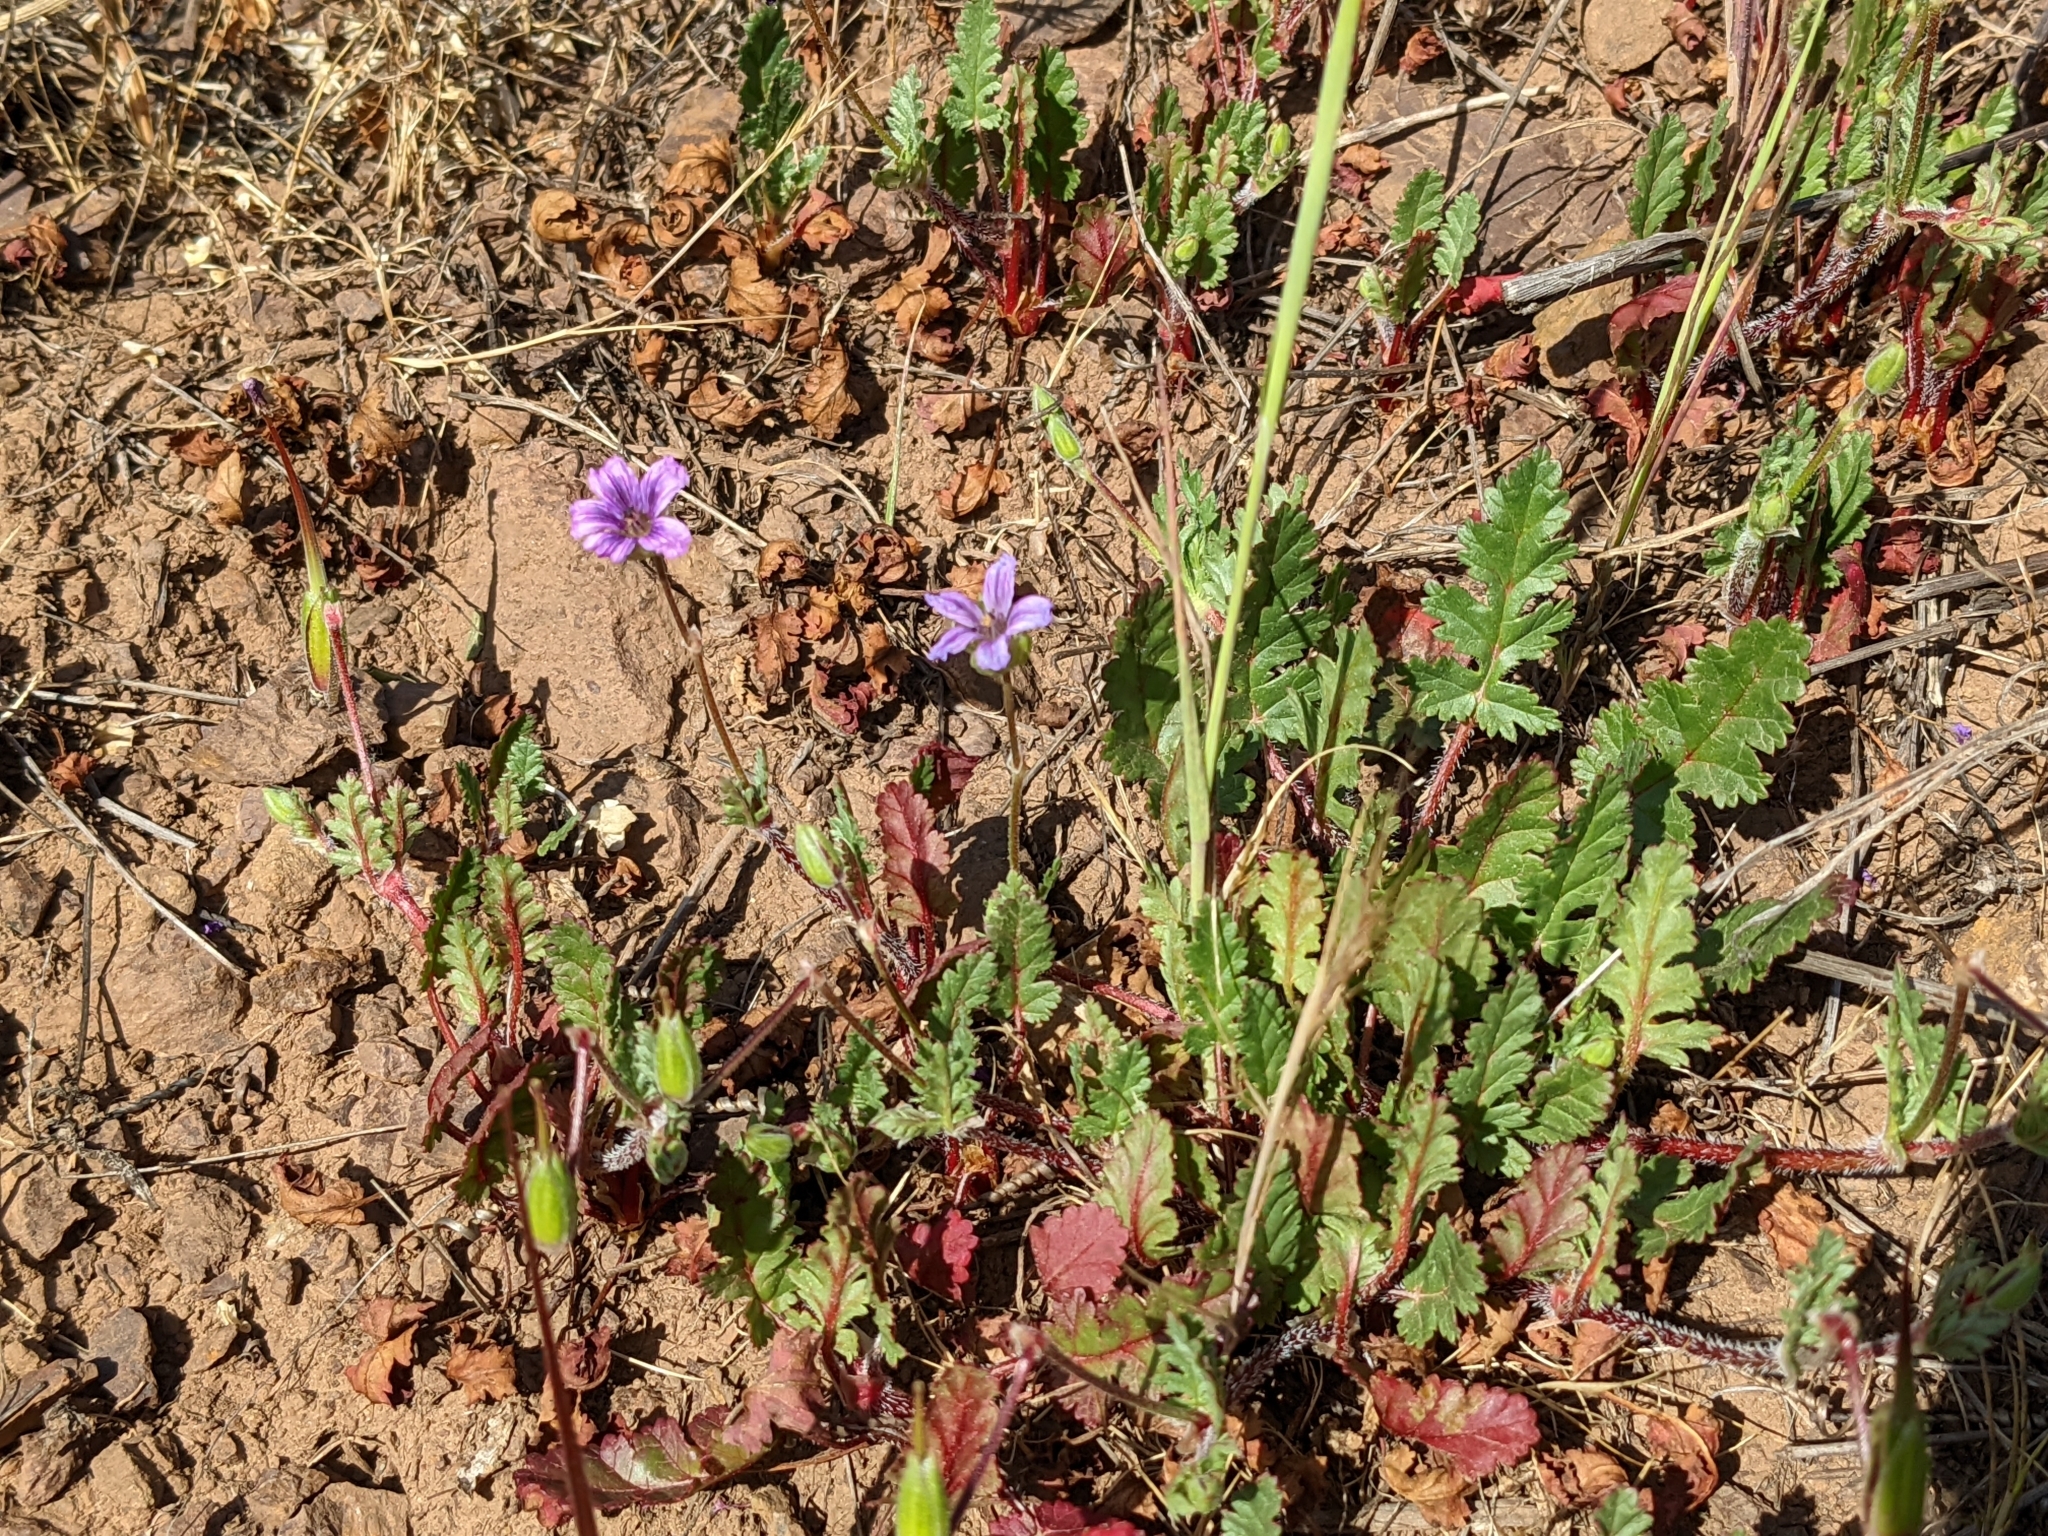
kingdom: Plantae
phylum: Tracheophyta
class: Magnoliopsida
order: Geraniales
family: Geraniaceae
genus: Erodium
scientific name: Erodium botrys
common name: Mediterranean stork's-bill
